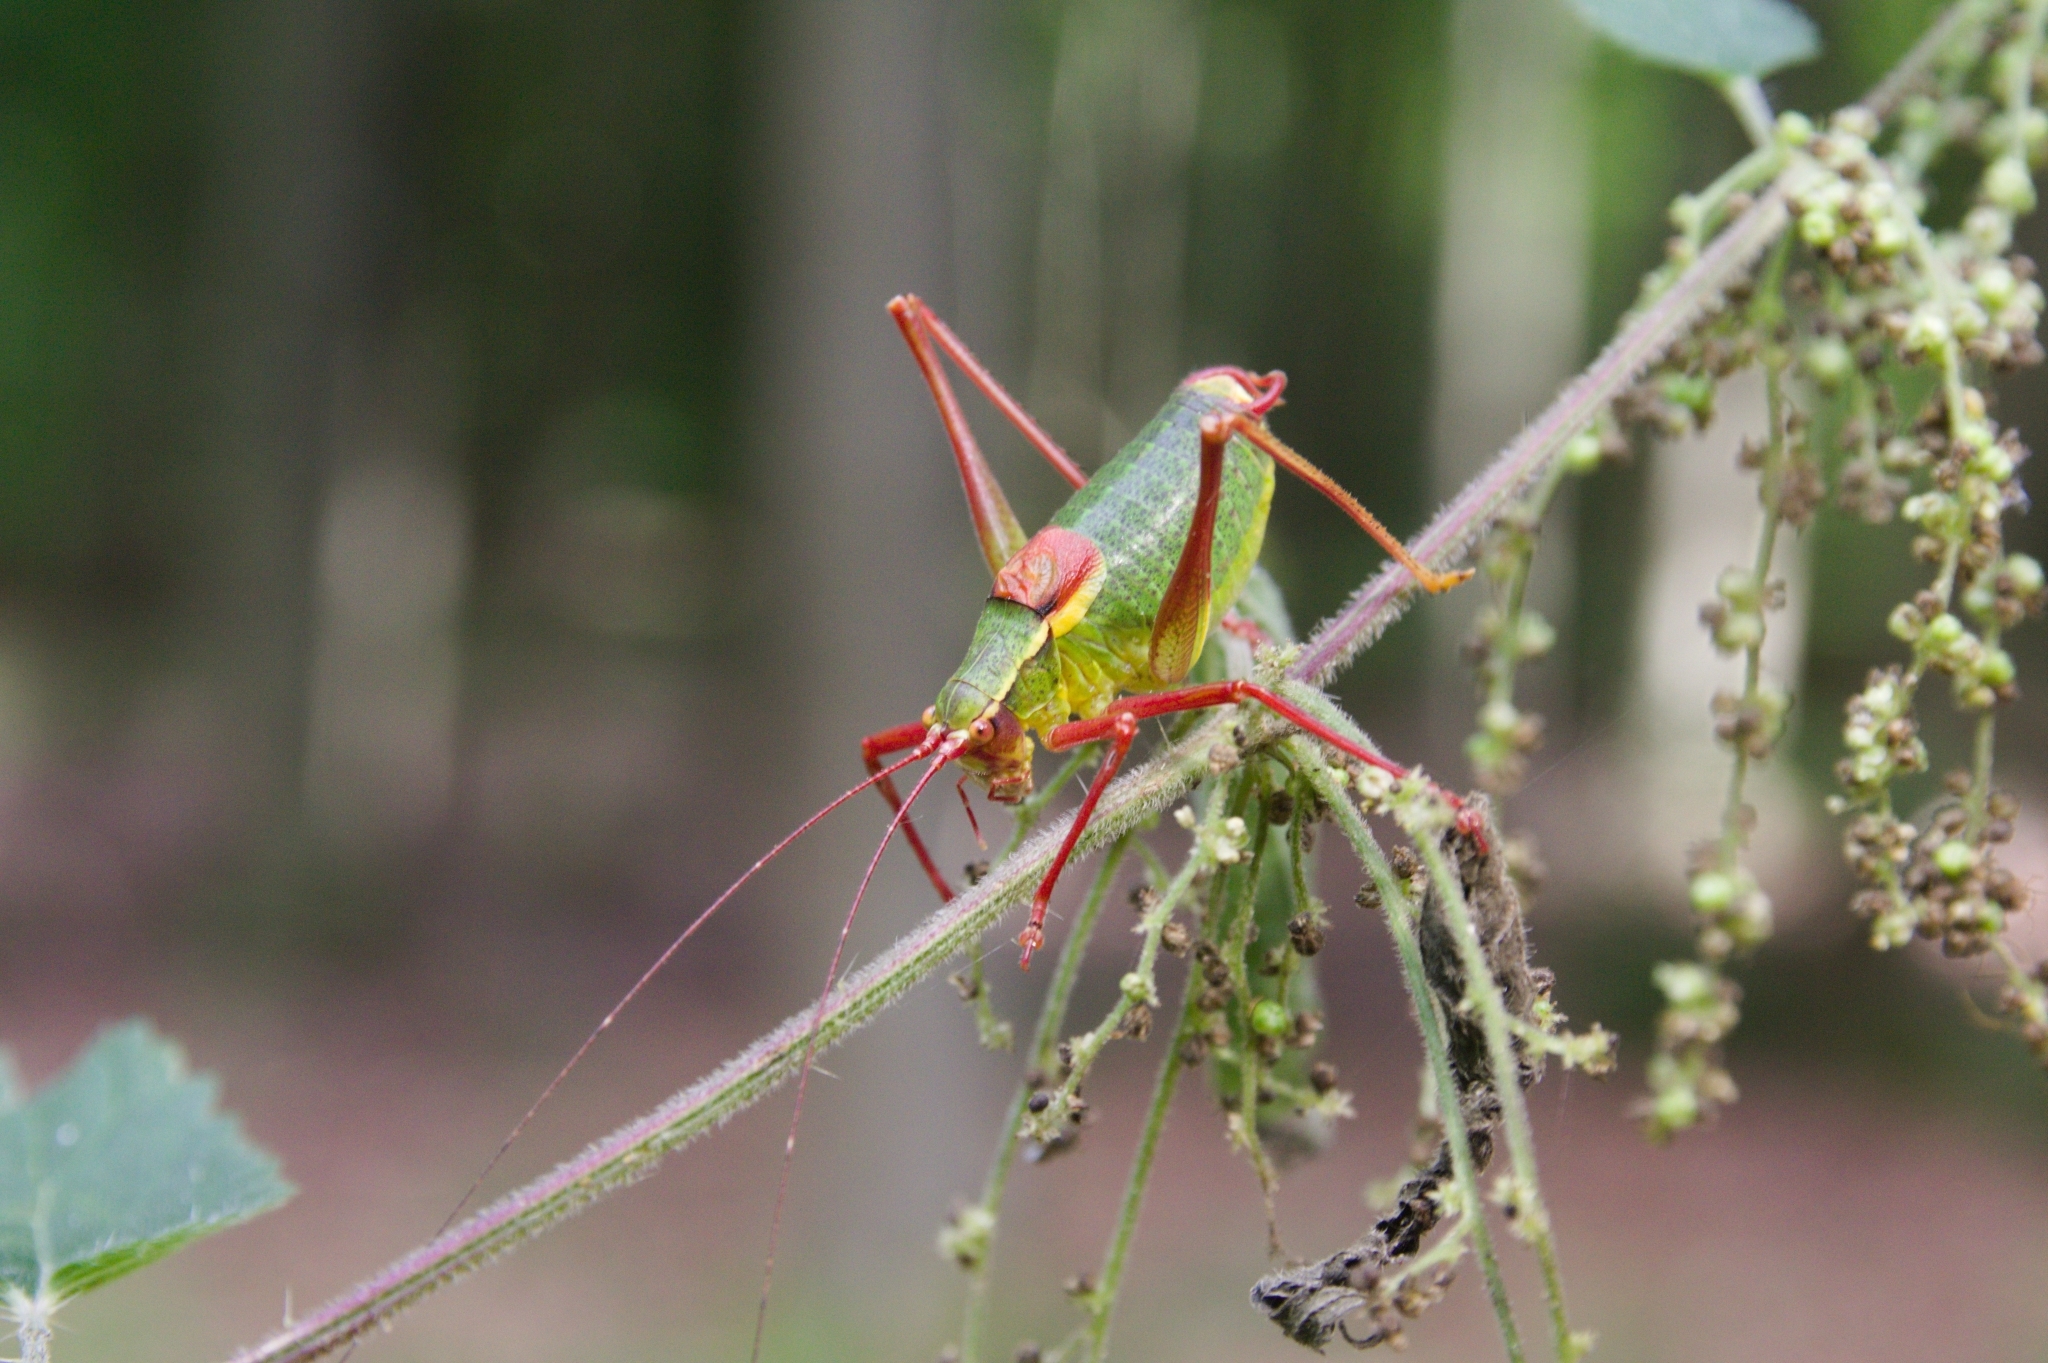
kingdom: Animalia
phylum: Arthropoda
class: Insecta
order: Orthoptera
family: Tettigoniidae
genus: Barbitistes
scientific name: Barbitistes serricauda
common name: Saw-tailed bush-cricket
